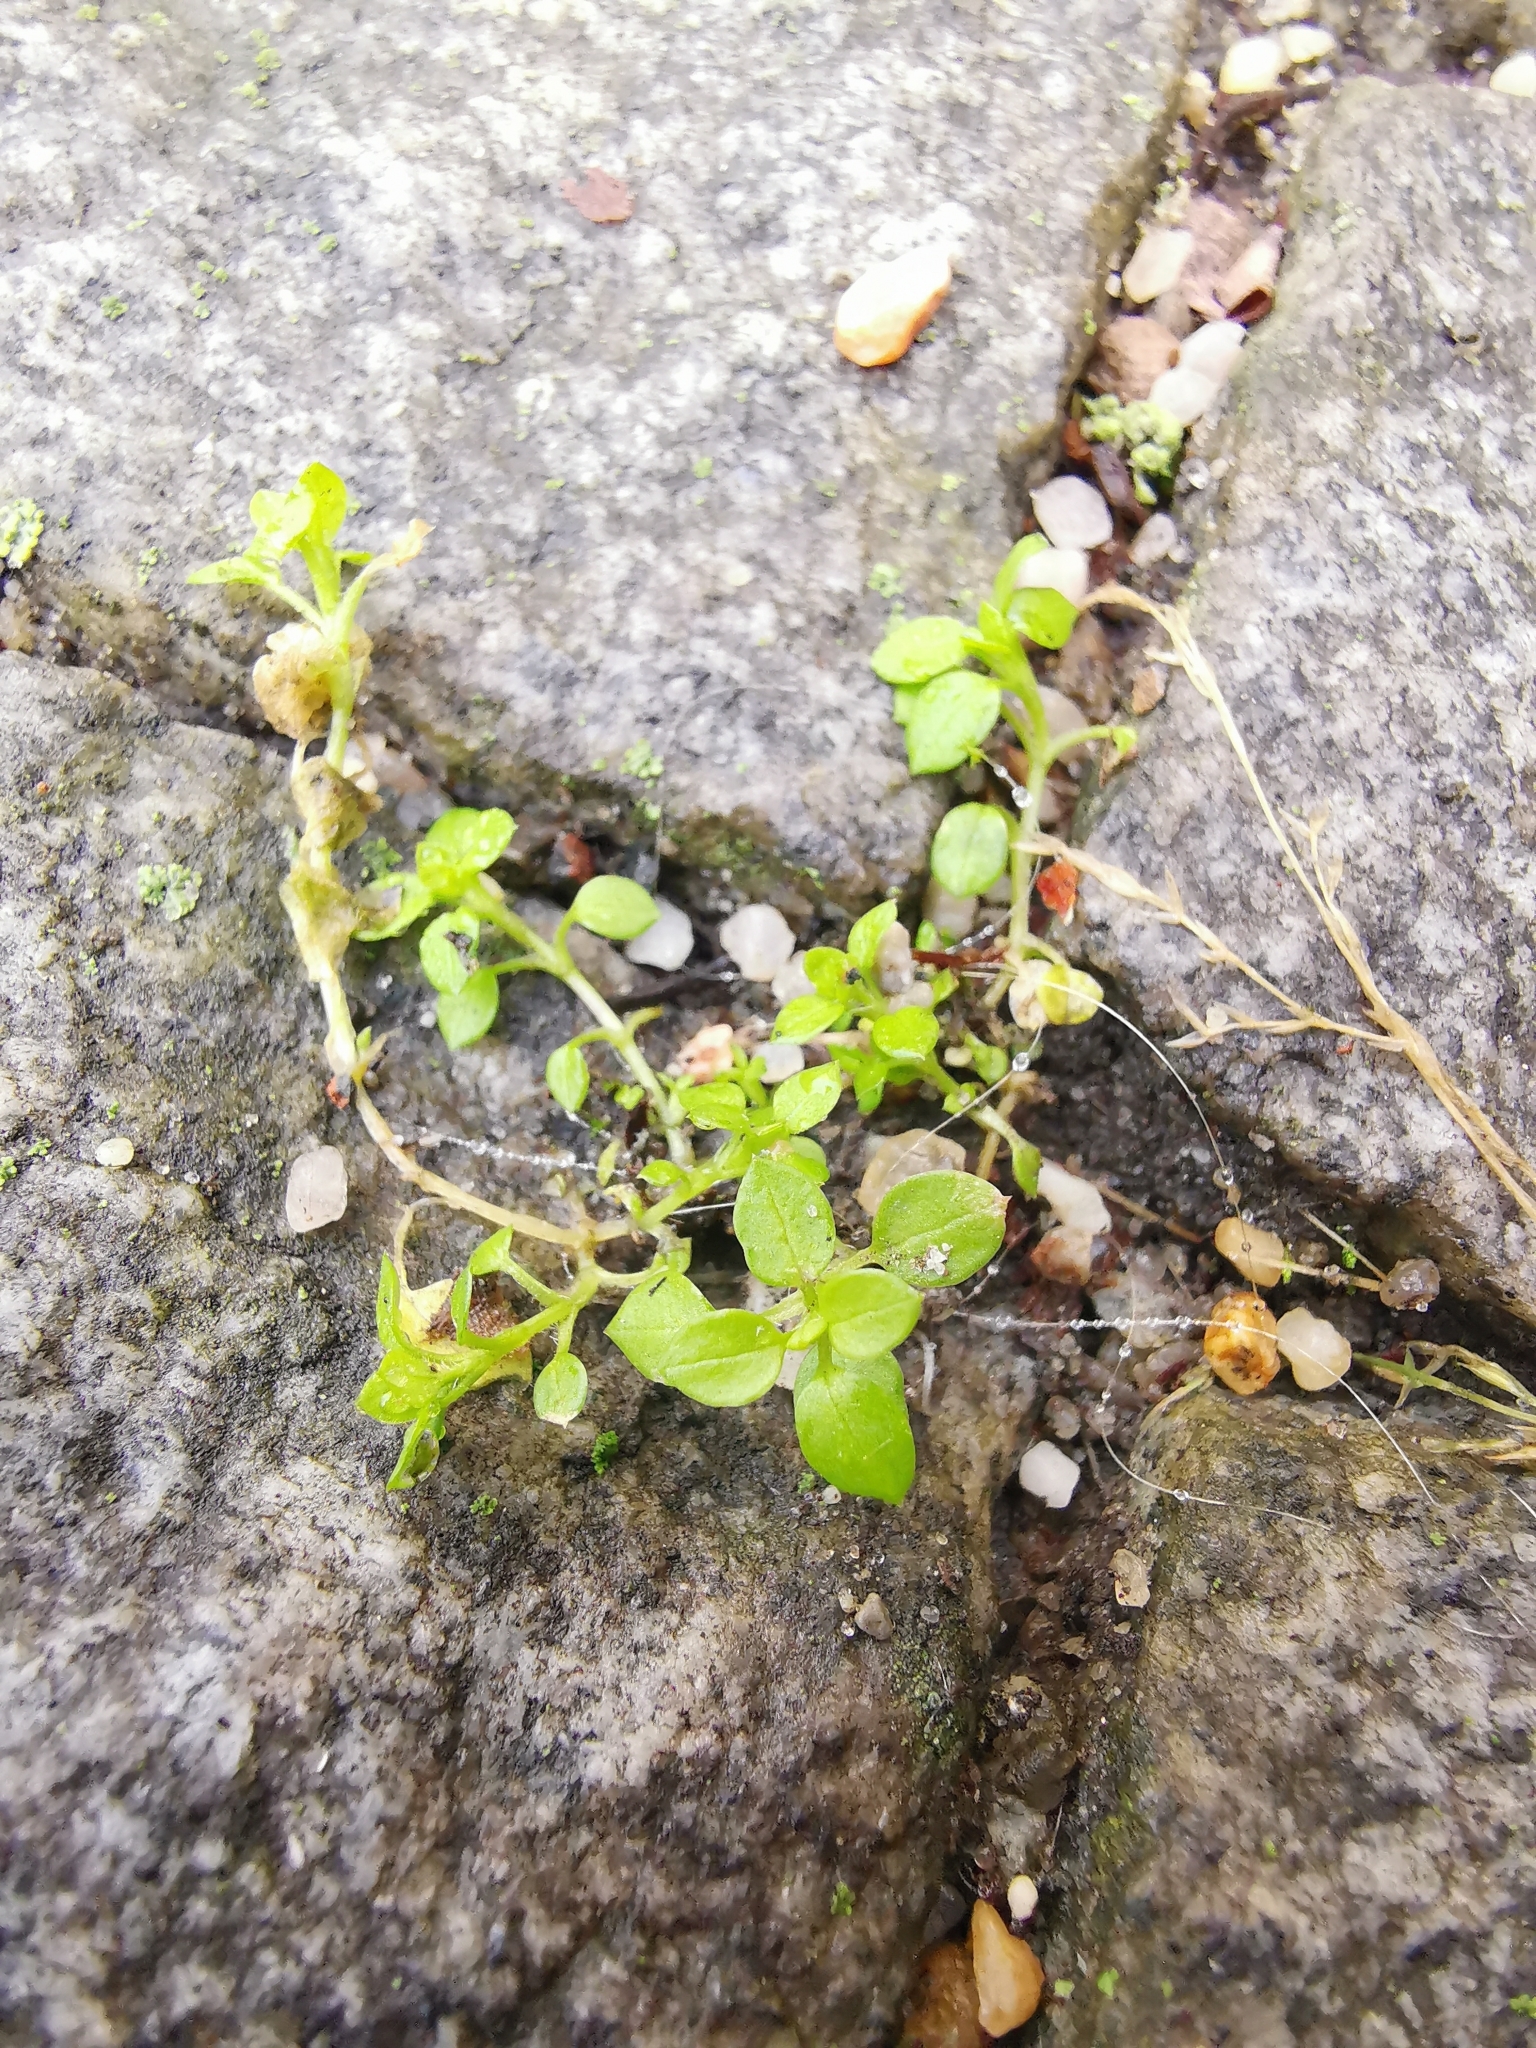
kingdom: Plantae
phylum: Tracheophyta
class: Magnoliopsida
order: Caryophyllales
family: Caryophyllaceae
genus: Stellaria
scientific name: Stellaria media
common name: Common chickweed
